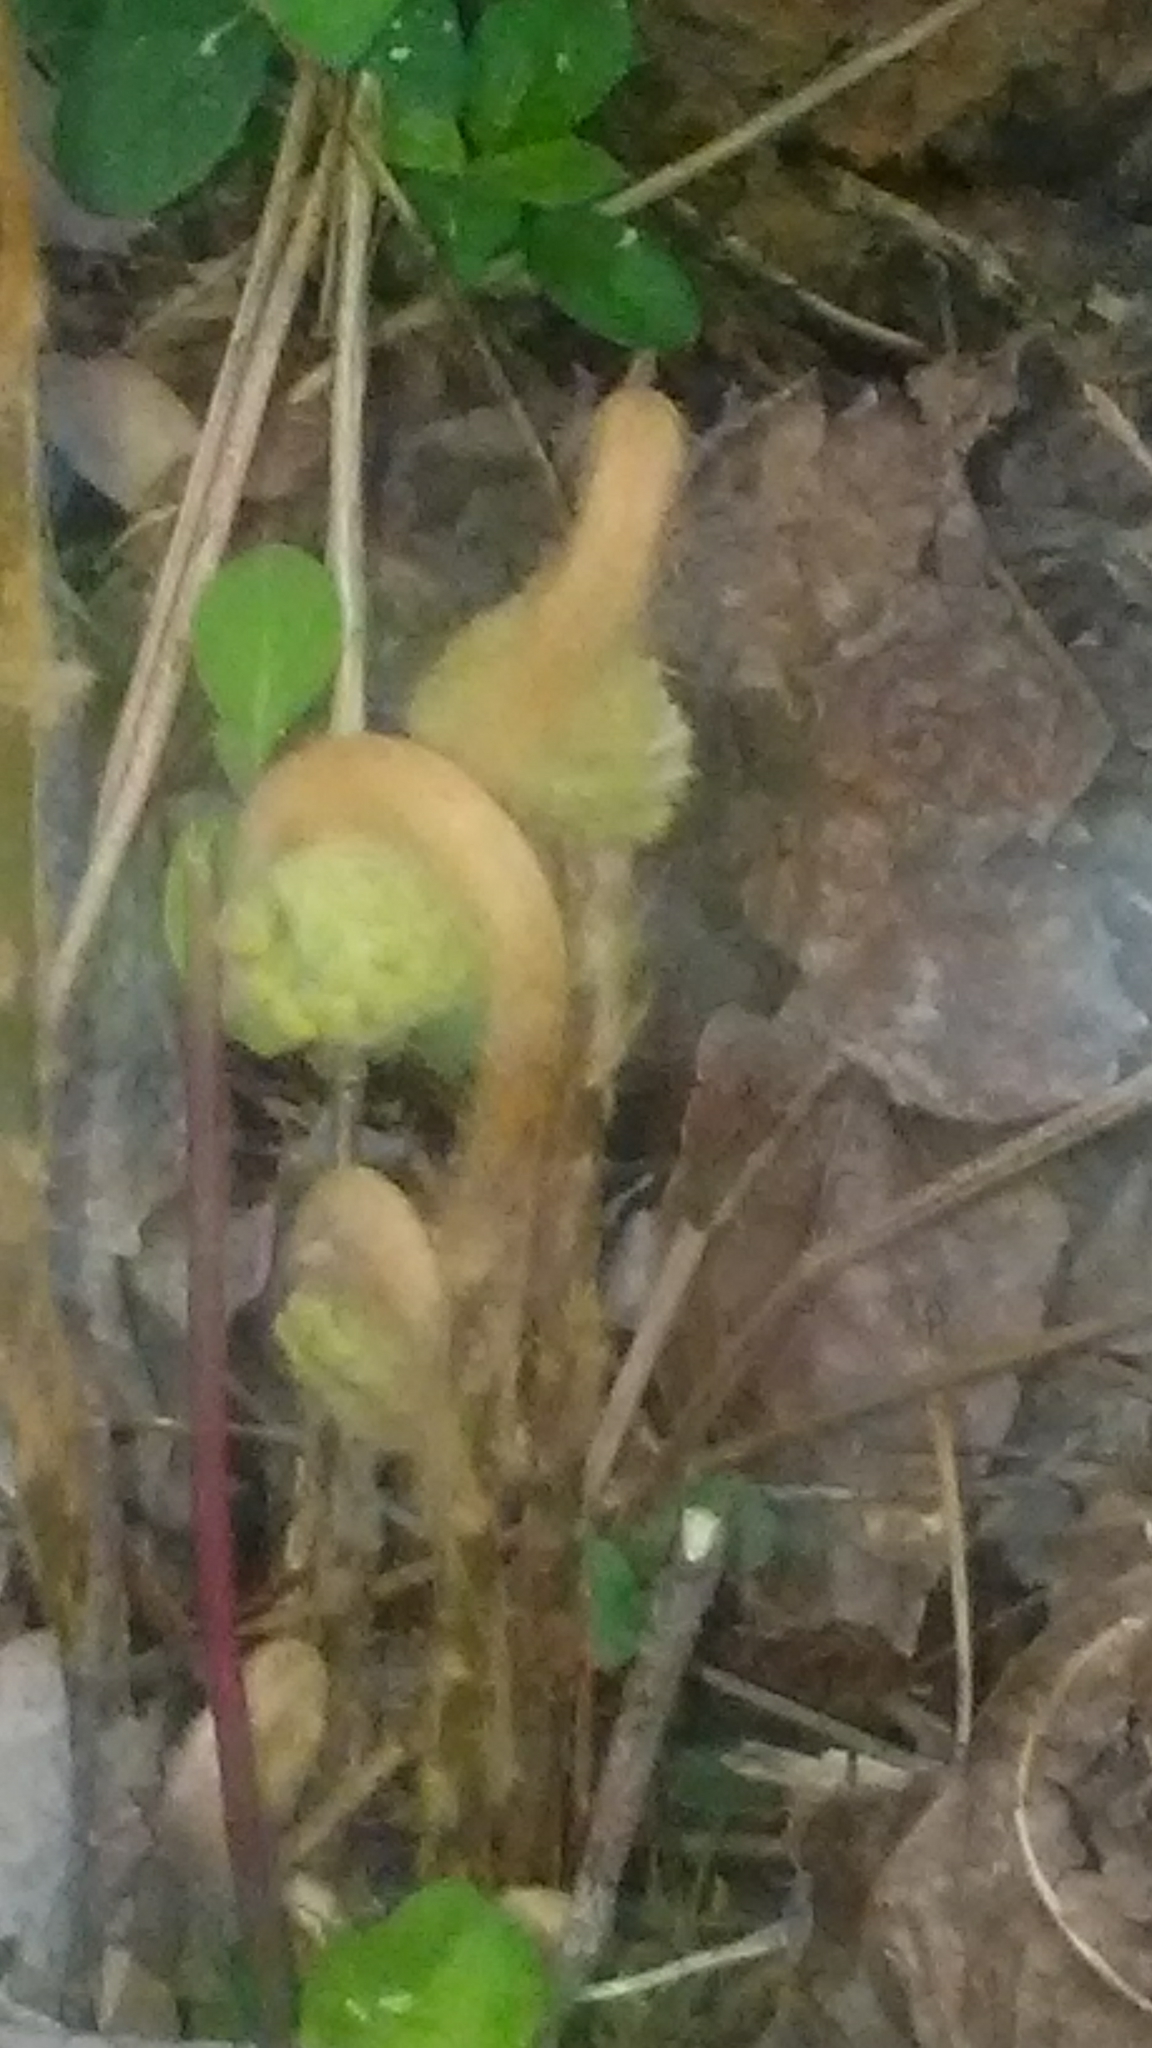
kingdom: Plantae
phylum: Tracheophyta
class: Polypodiopsida
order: Osmundales
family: Osmundaceae
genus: Osmundastrum
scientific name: Osmundastrum cinnamomeum
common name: Cinnamon fern
